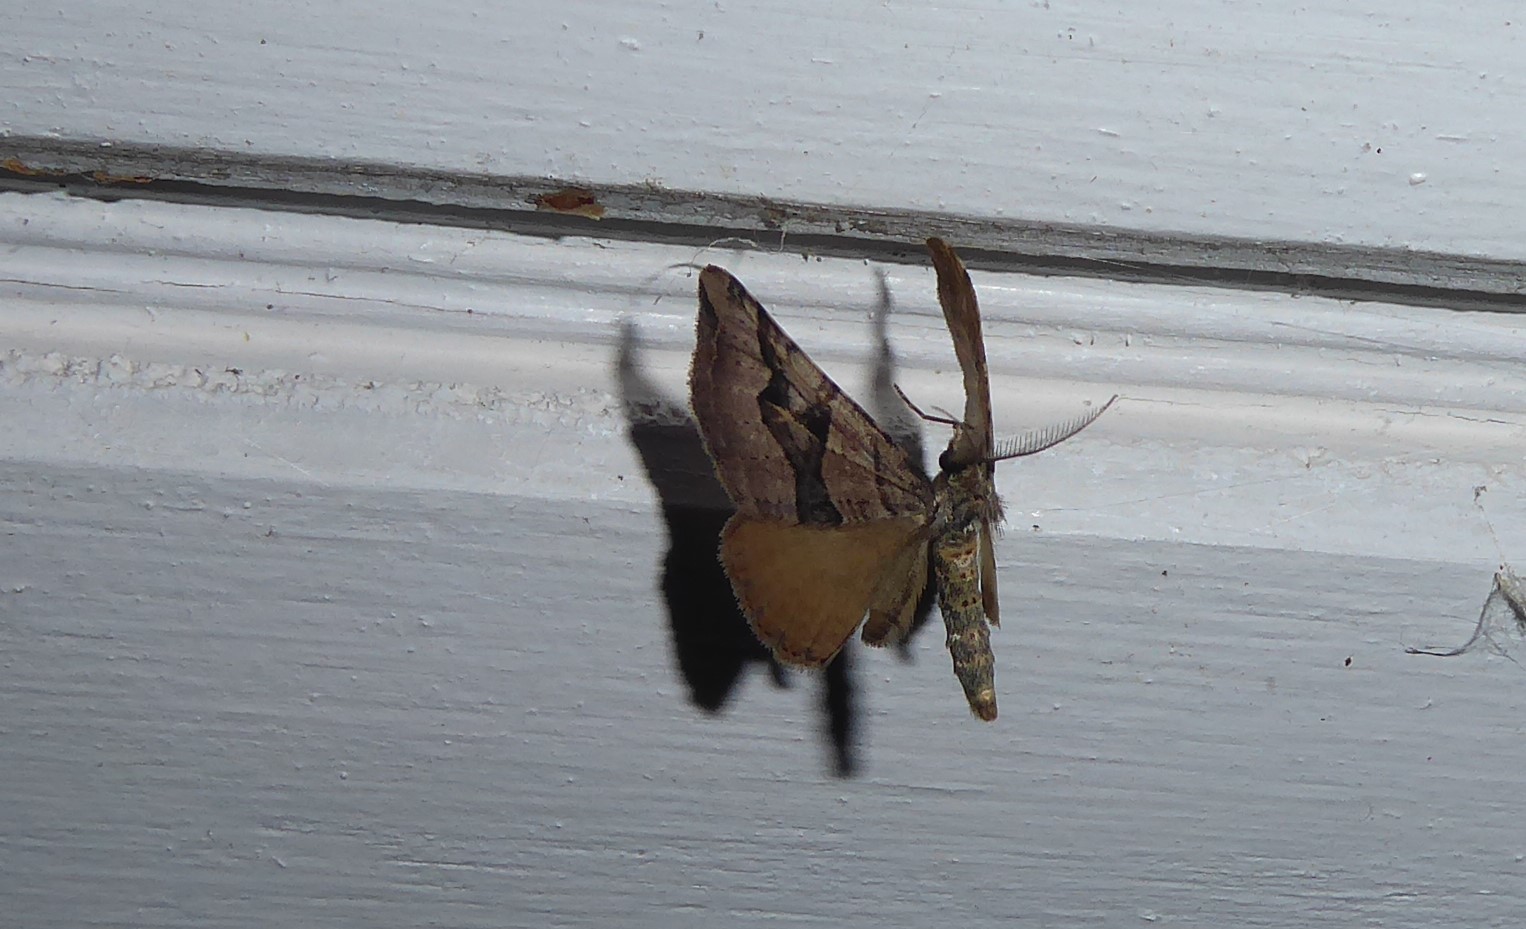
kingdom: Animalia
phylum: Arthropoda
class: Insecta
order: Lepidoptera
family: Geometridae
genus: Xanthorhoe
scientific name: Xanthorhoe semifissata
